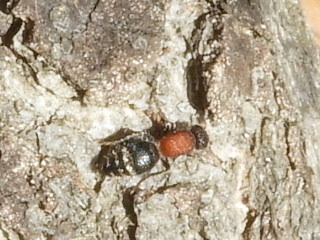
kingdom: Animalia
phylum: Arthropoda
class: Insecta
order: Hymenoptera
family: Mutillidae
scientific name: Mutillidae
